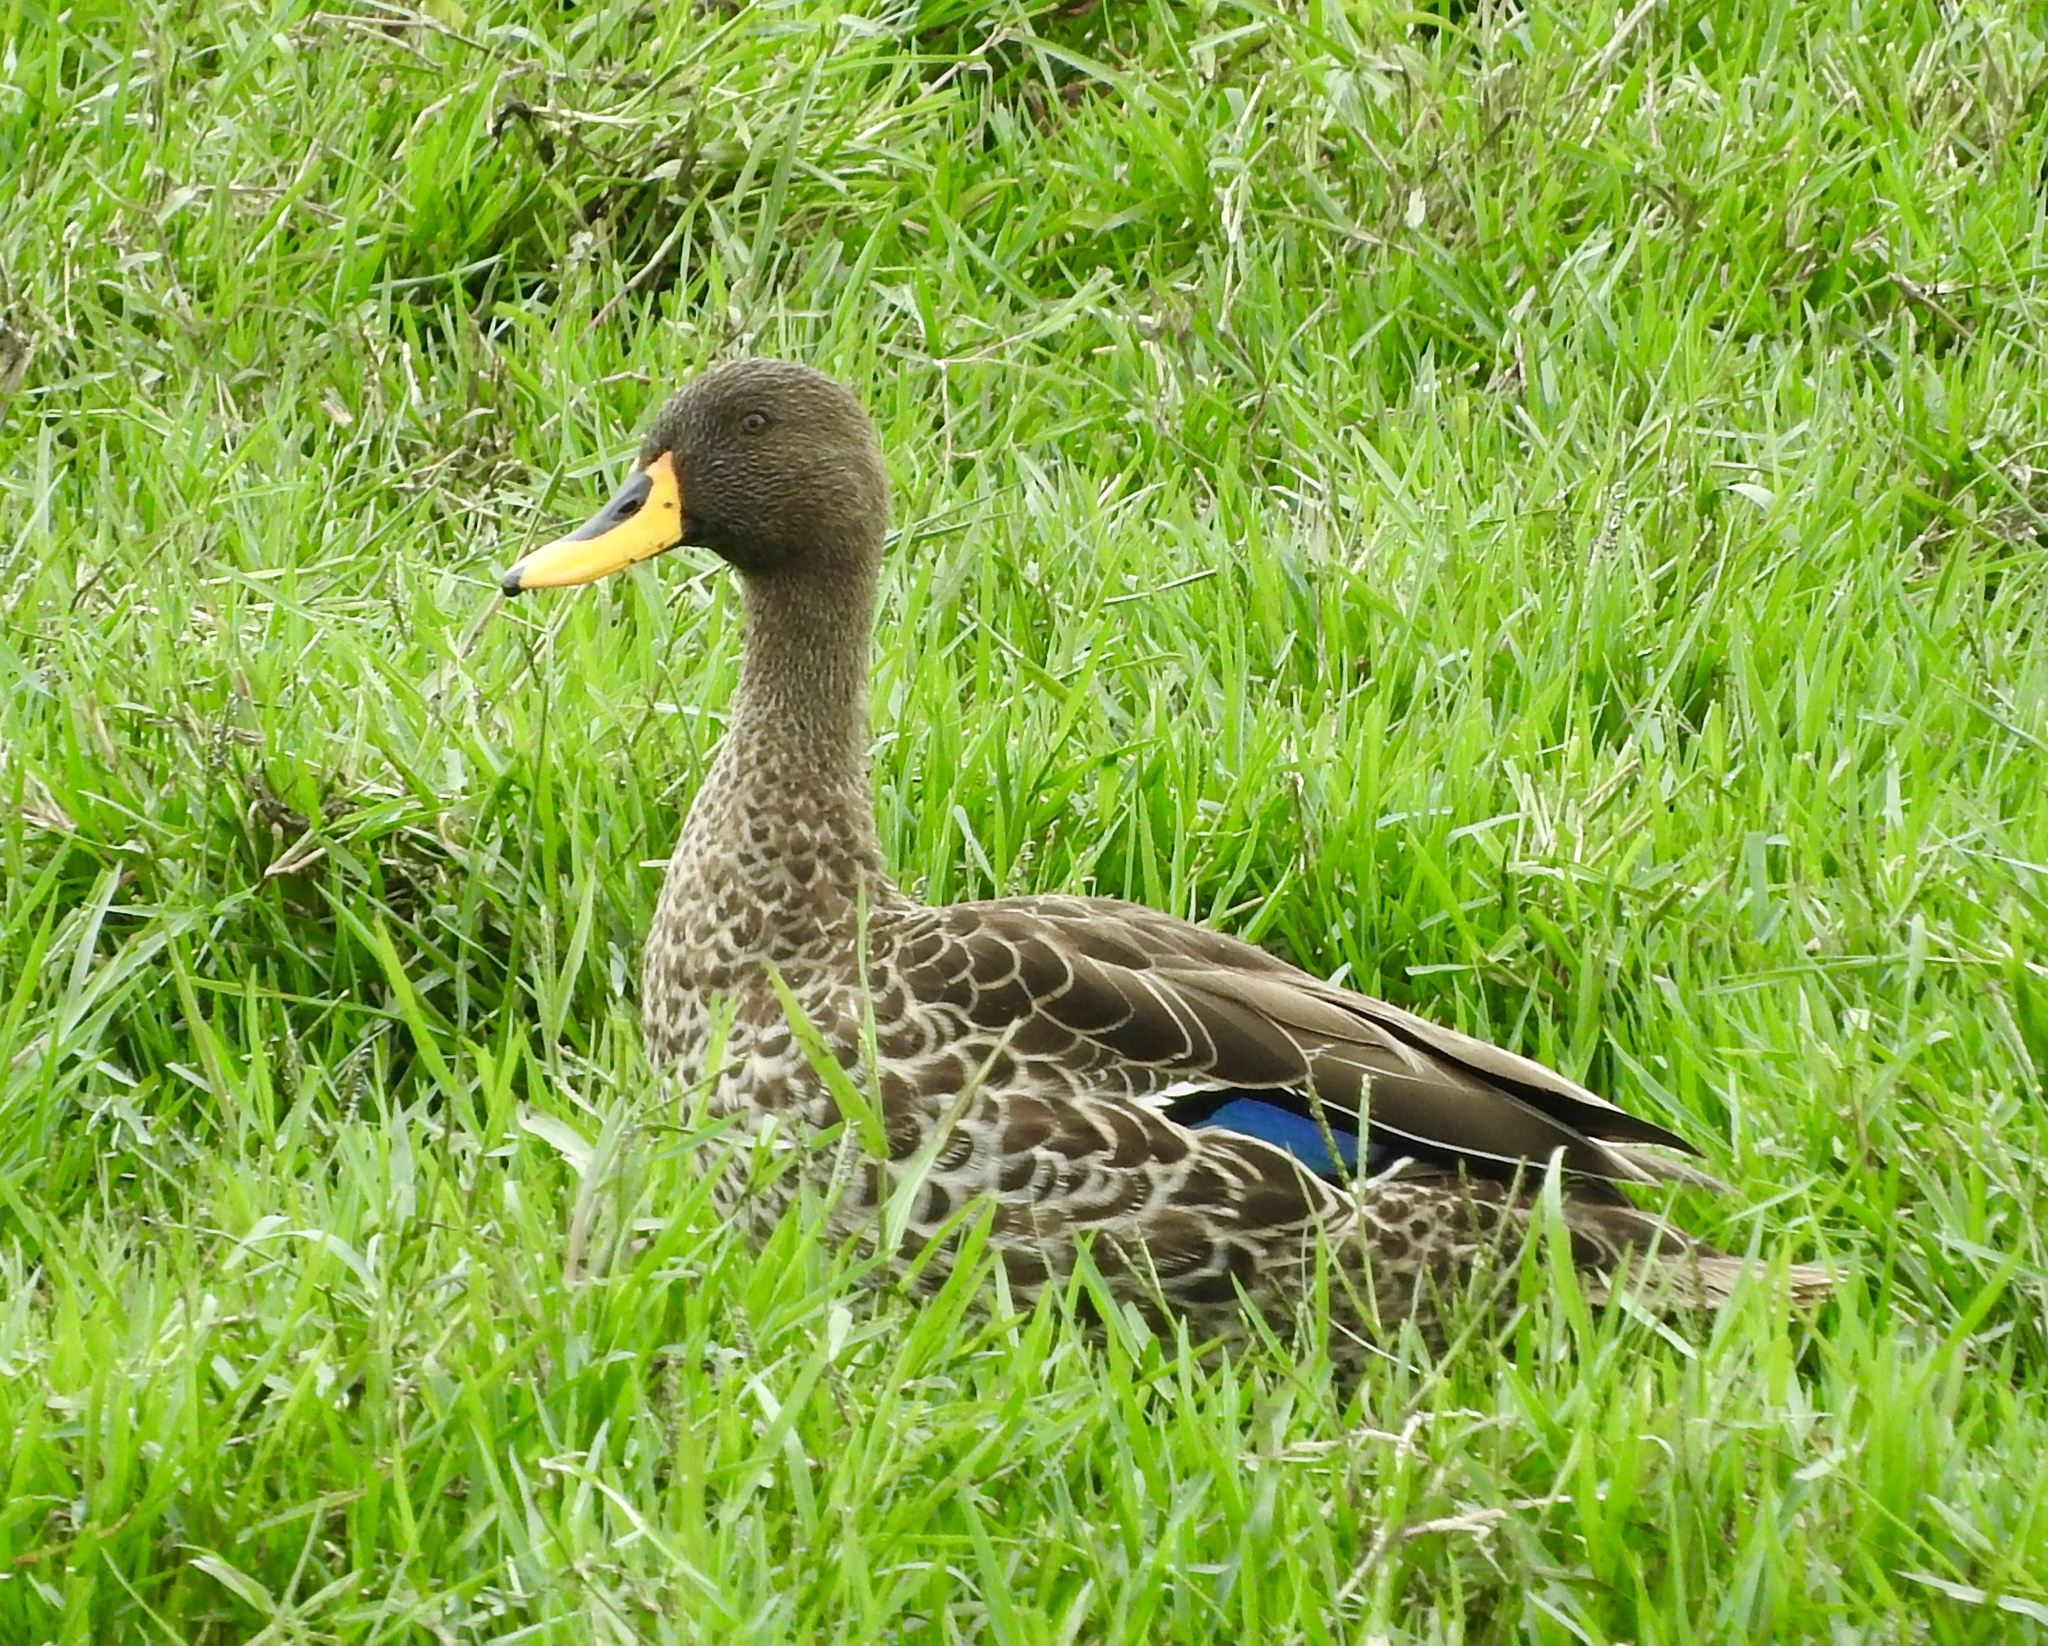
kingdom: Animalia
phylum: Chordata
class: Aves
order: Anseriformes
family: Anatidae
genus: Anas
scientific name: Anas undulata
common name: Yellow-billed duck
